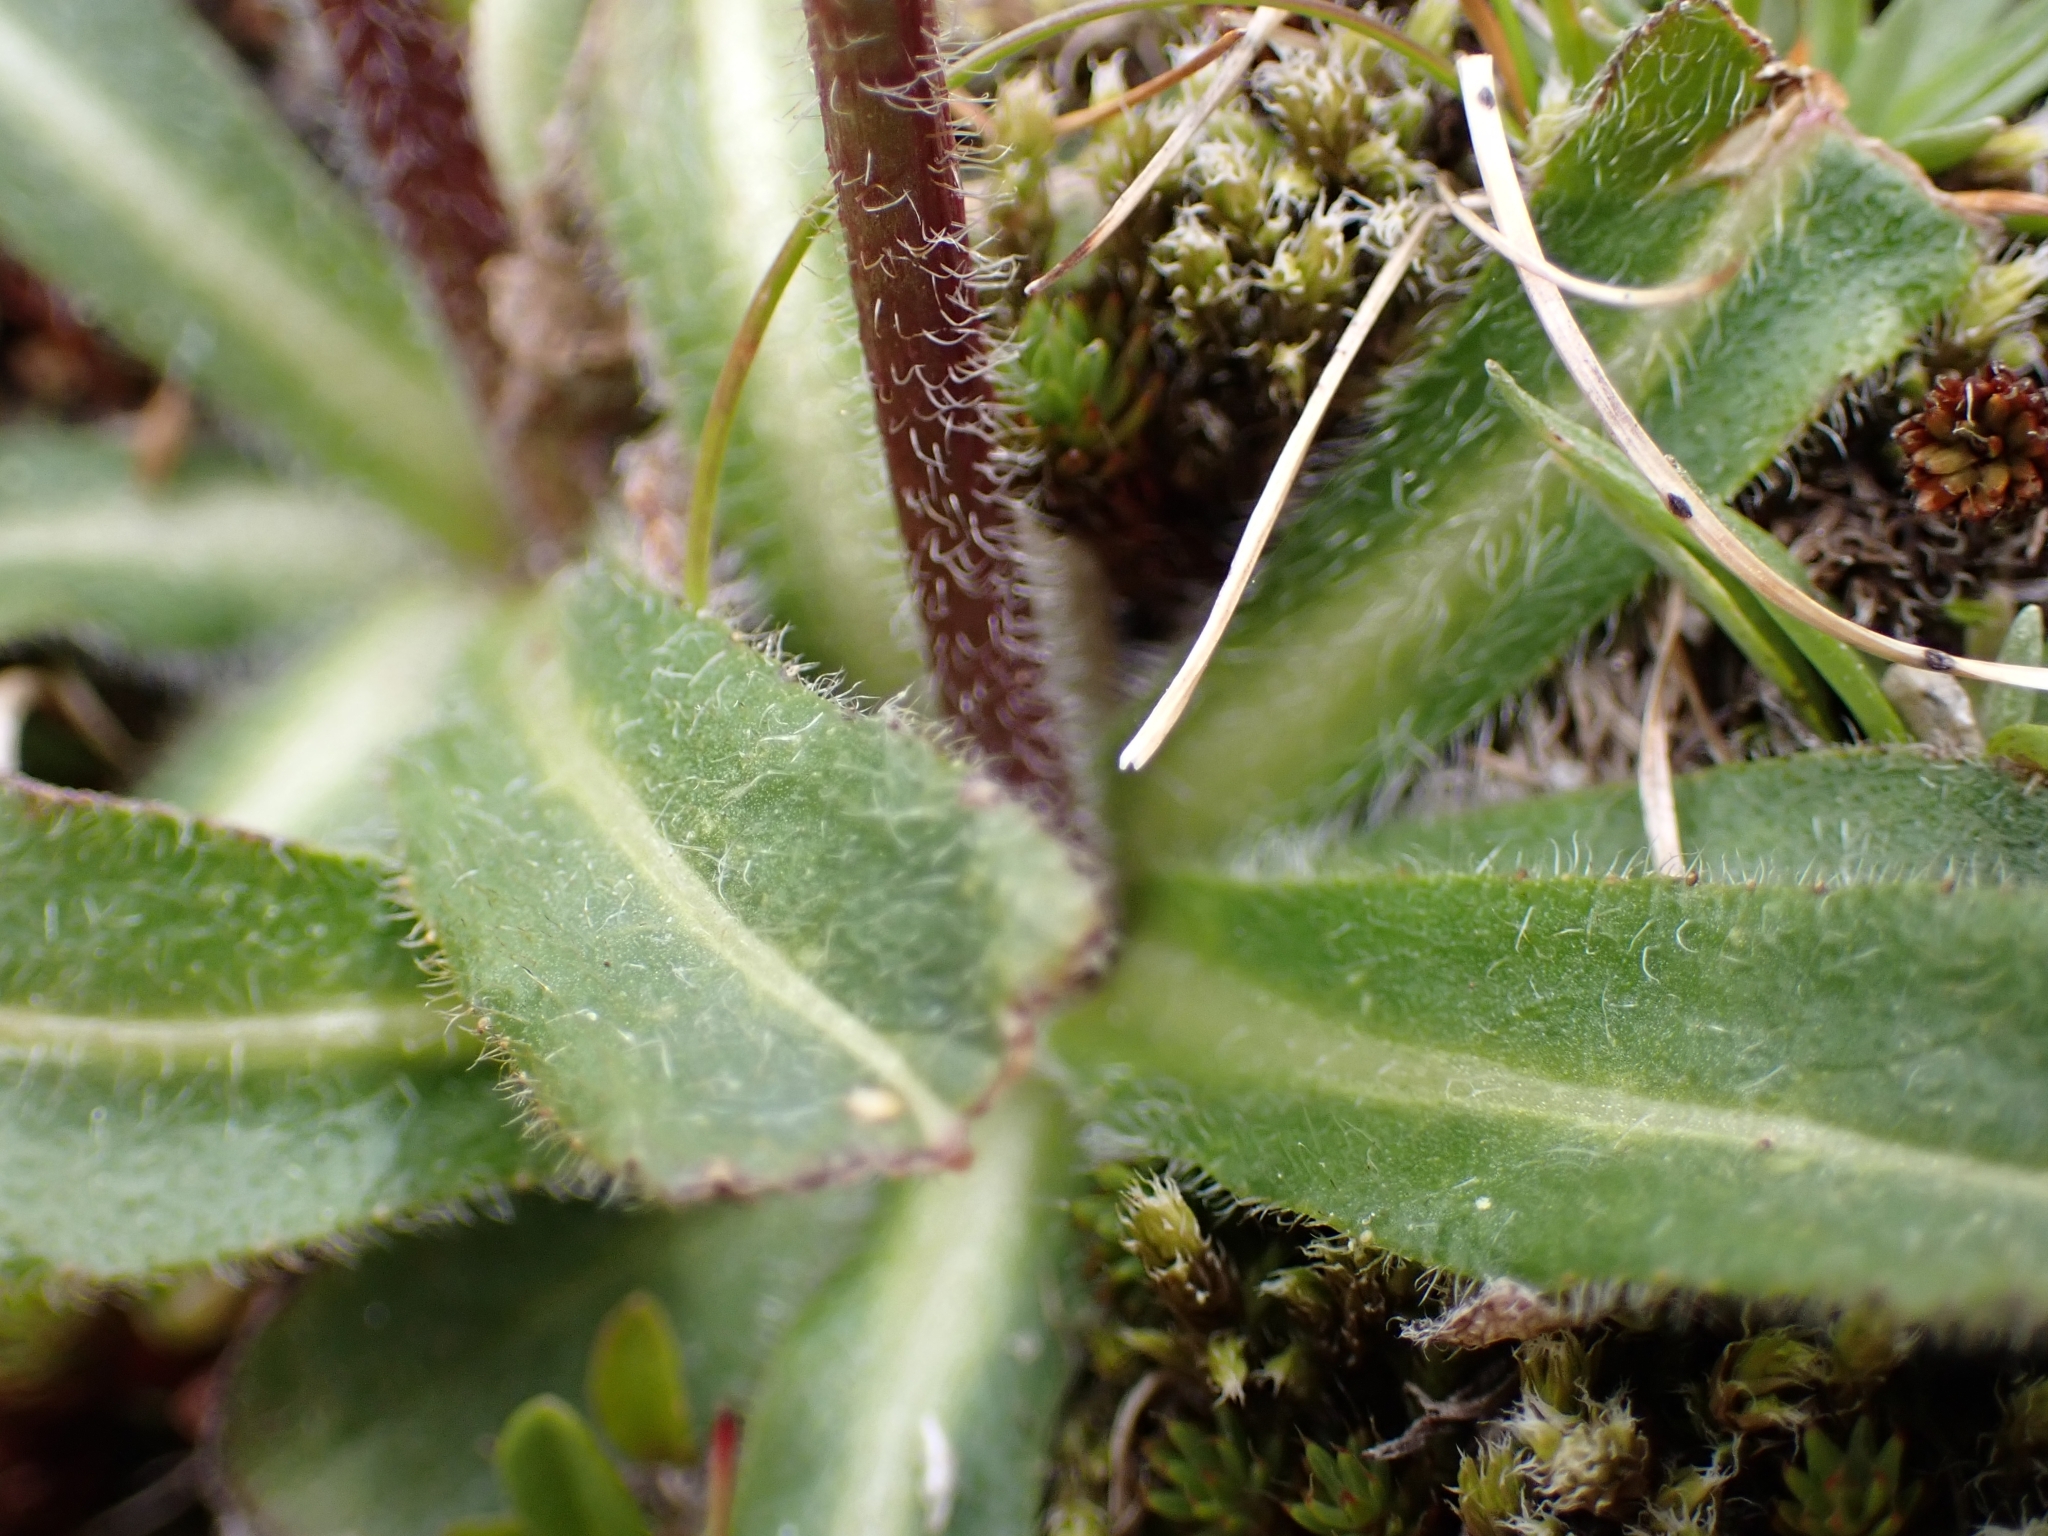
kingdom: Plantae
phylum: Tracheophyta
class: Magnoliopsida
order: Asterales
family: Campanulaceae
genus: Campanula
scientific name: Campanula barbata
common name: Bearded bellflower
